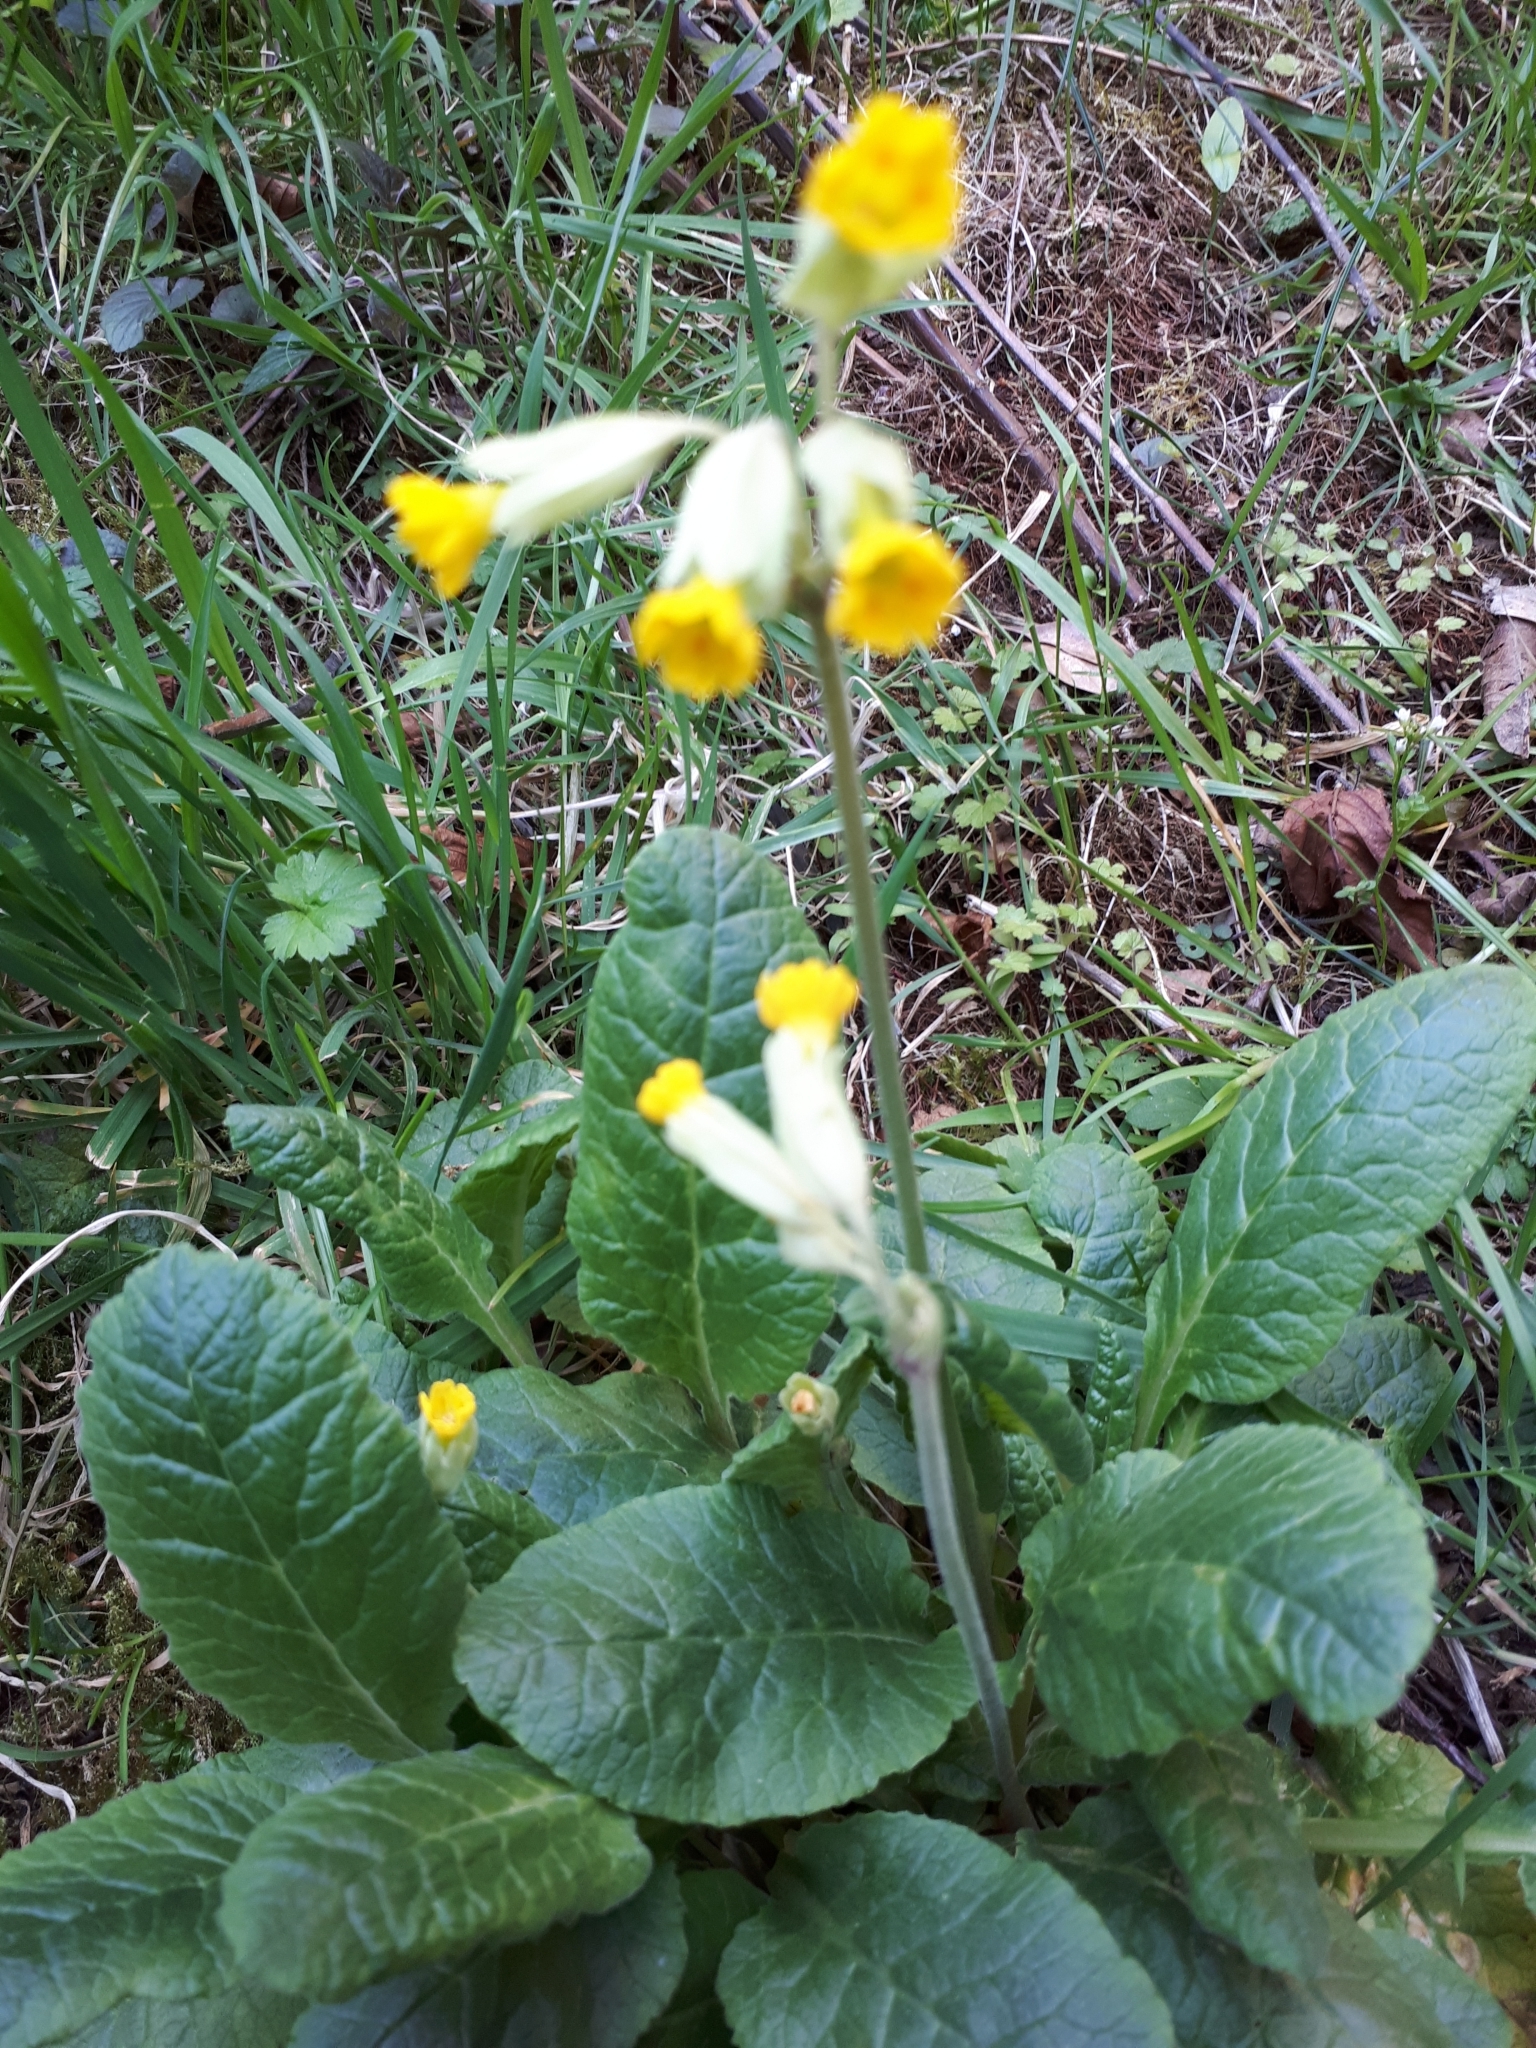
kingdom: Plantae
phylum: Tracheophyta
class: Magnoliopsida
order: Ericales
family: Primulaceae
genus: Primula
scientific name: Primula veris
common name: Cowslip
